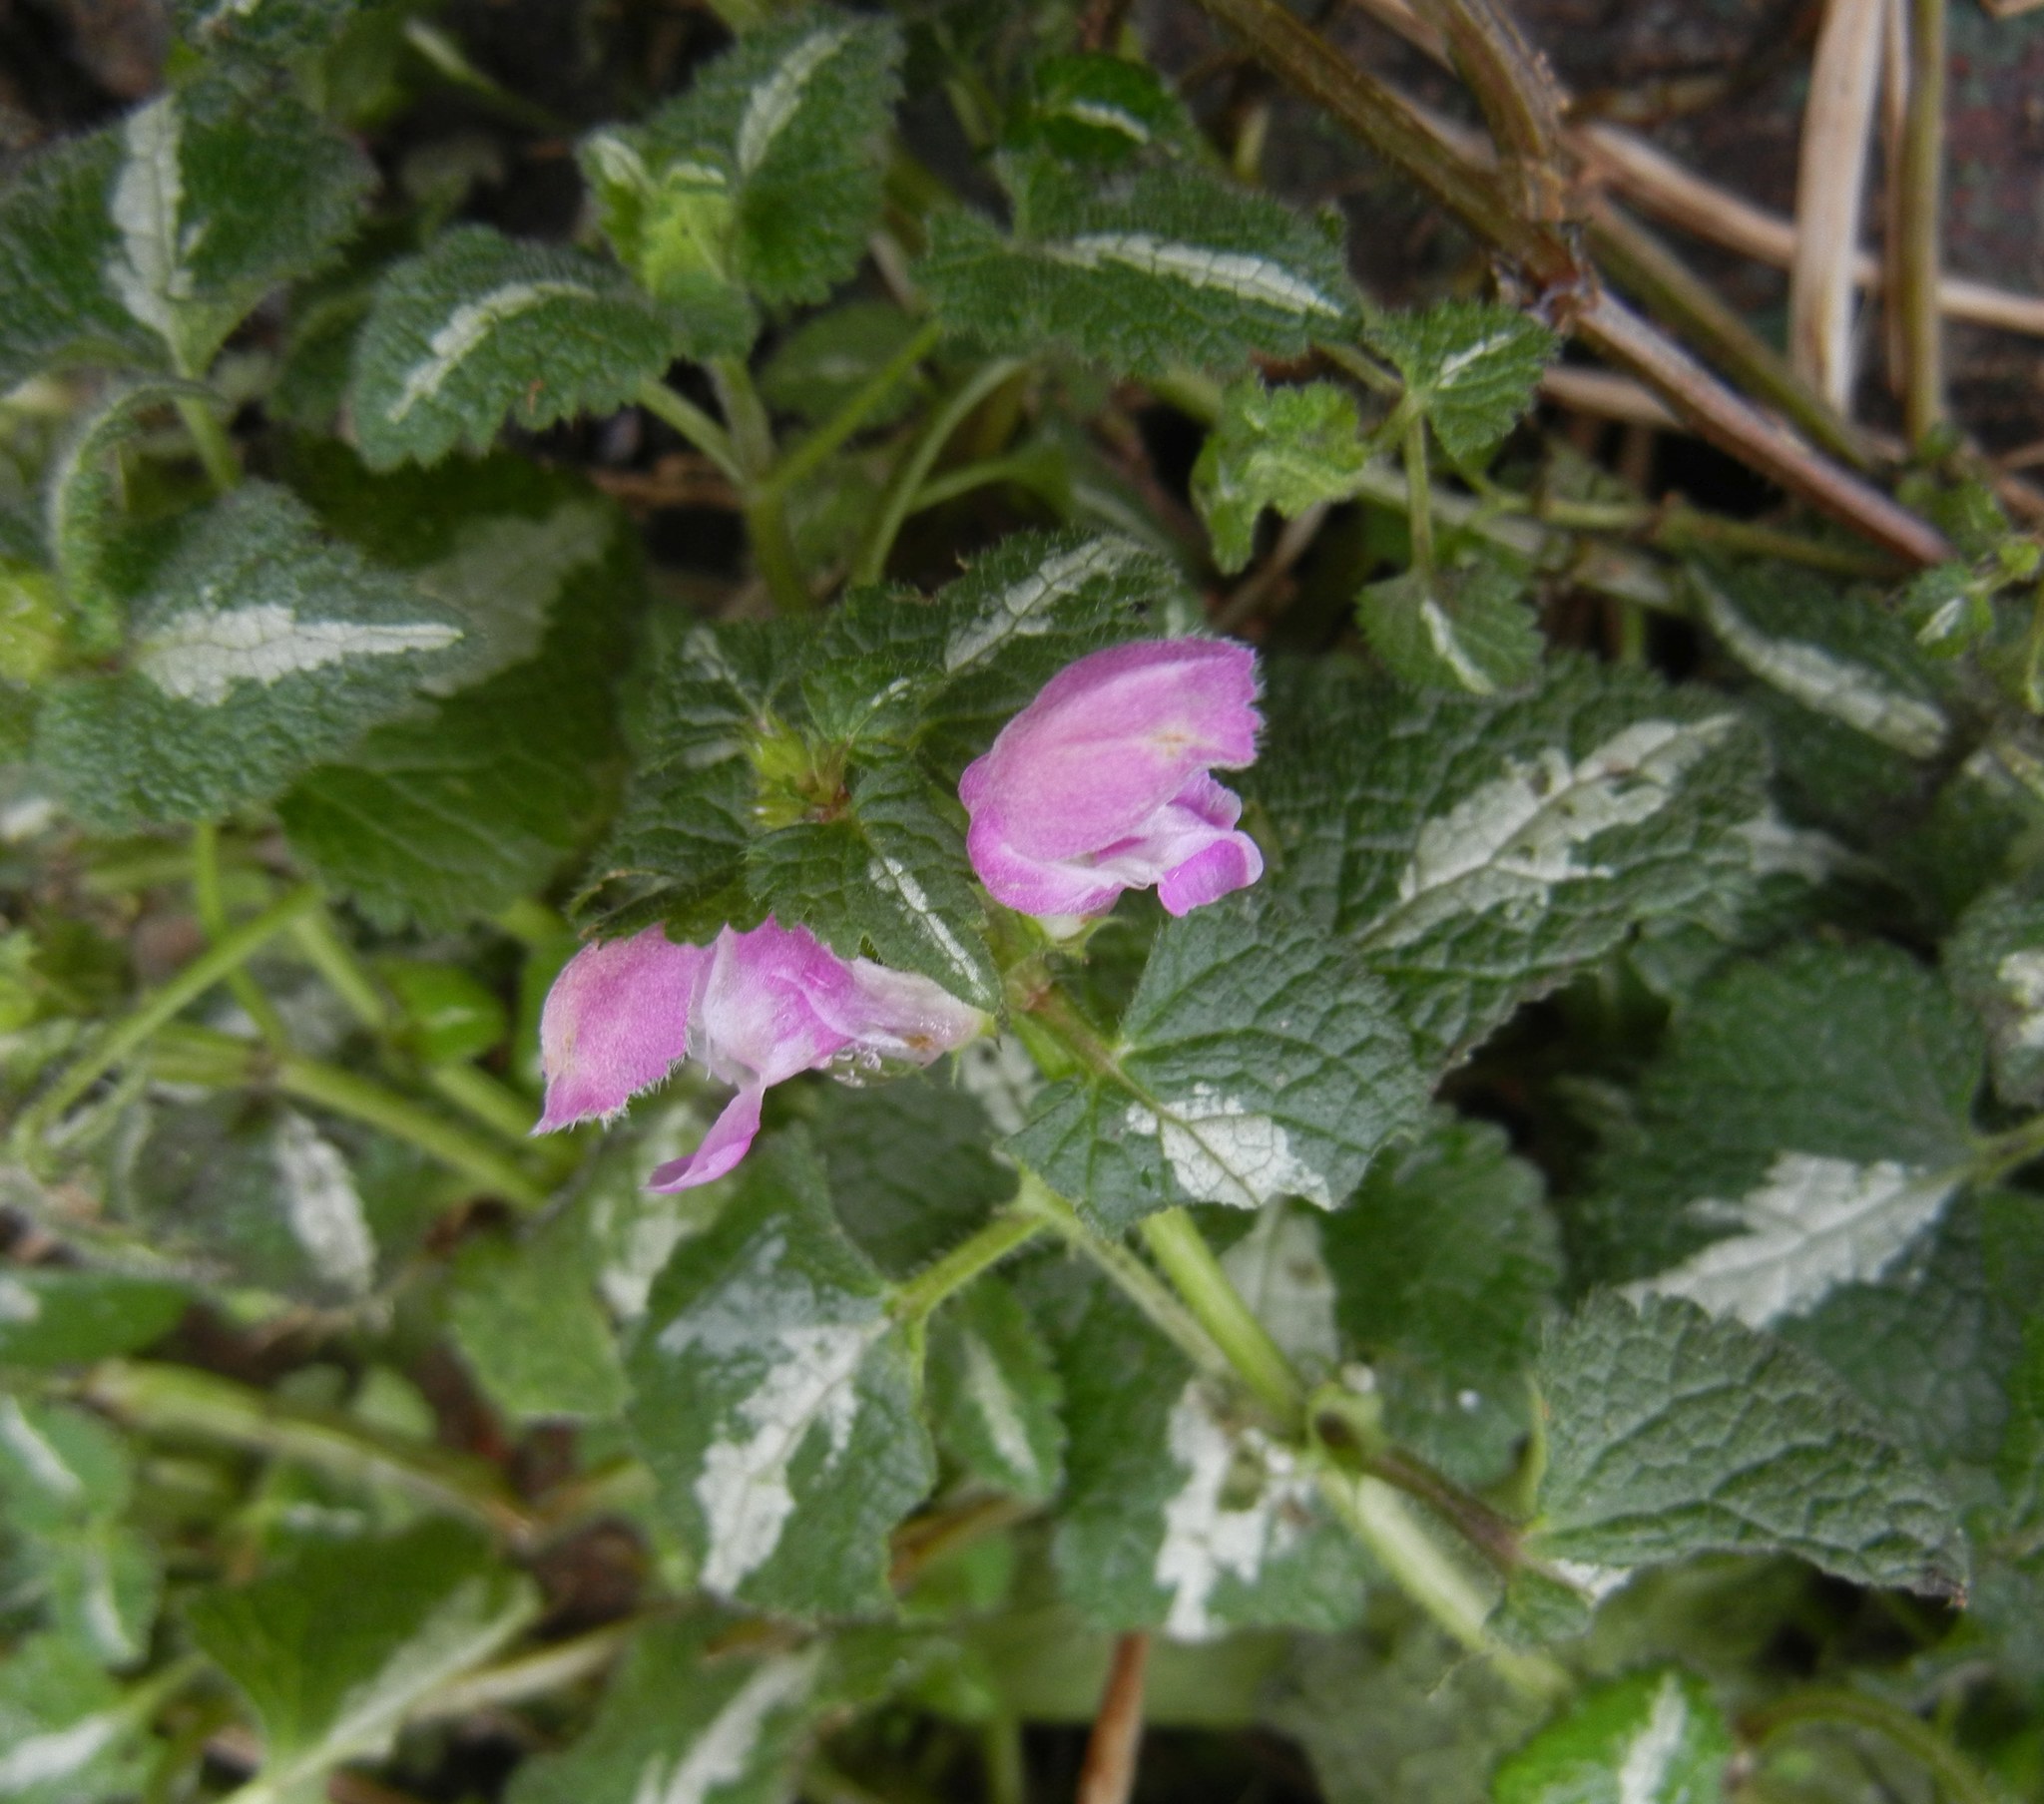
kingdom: Plantae
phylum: Tracheophyta
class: Magnoliopsida
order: Lamiales
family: Lamiaceae
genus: Lamium
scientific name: Lamium maculatum
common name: Spotted dead-nettle
